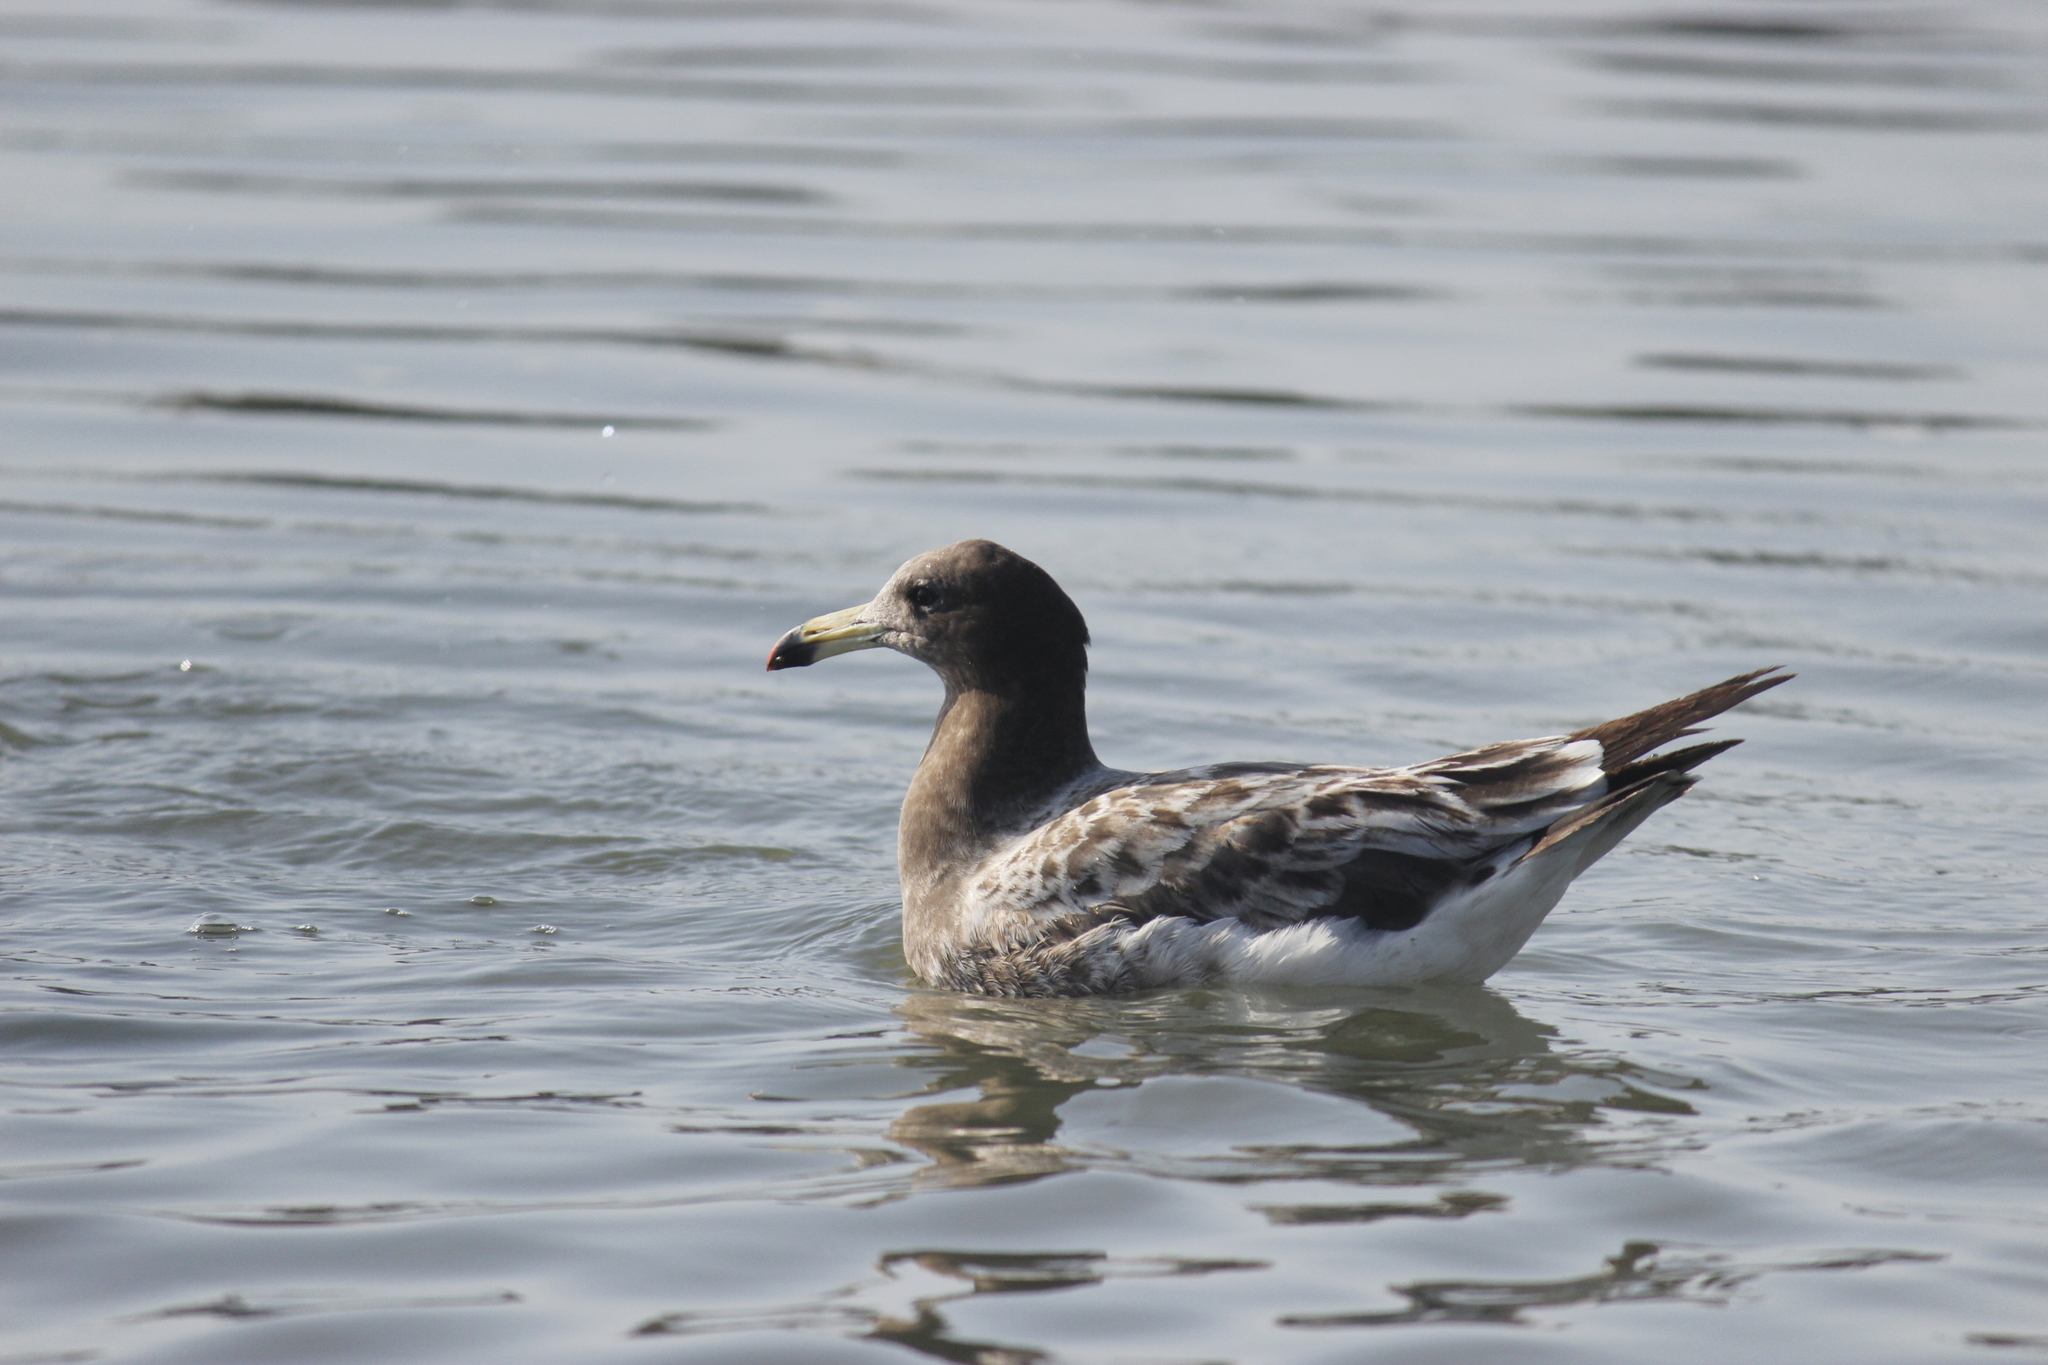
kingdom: Animalia
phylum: Chordata
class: Aves
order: Charadriiformes
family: Laridae
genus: Larus
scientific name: Larus belcheri
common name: Belcher's gull
